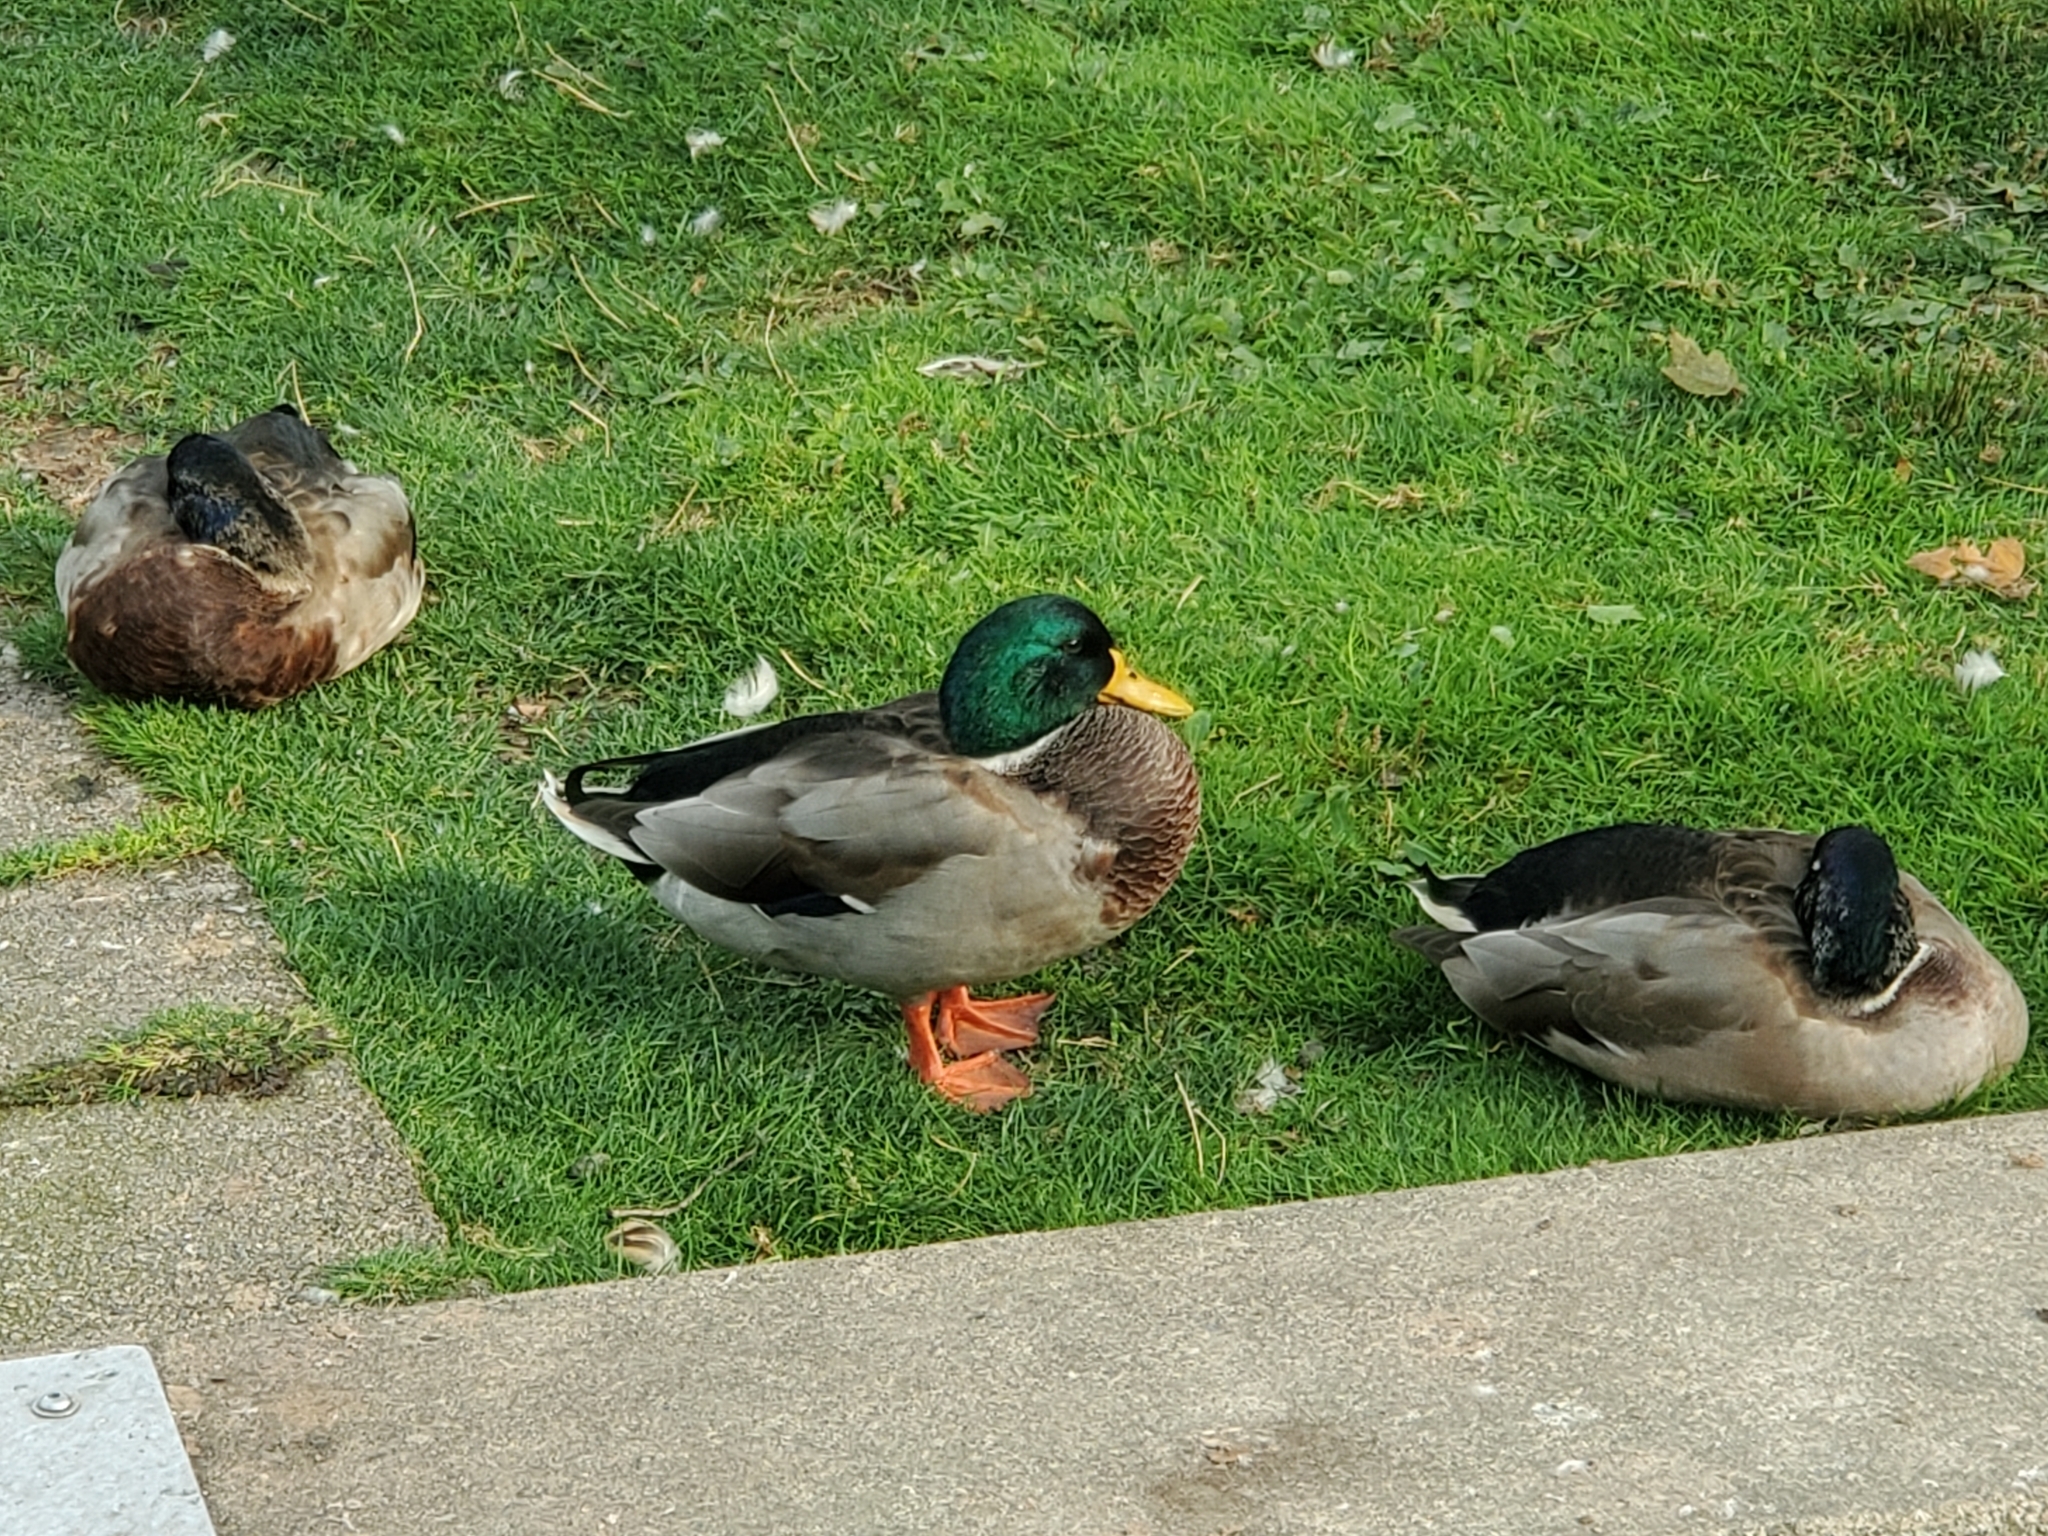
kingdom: Animalia
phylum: Chordata
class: Aves
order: Anseriformes
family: Anatidae
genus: Anas
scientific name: Anas platyrhynchos
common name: Mallard
